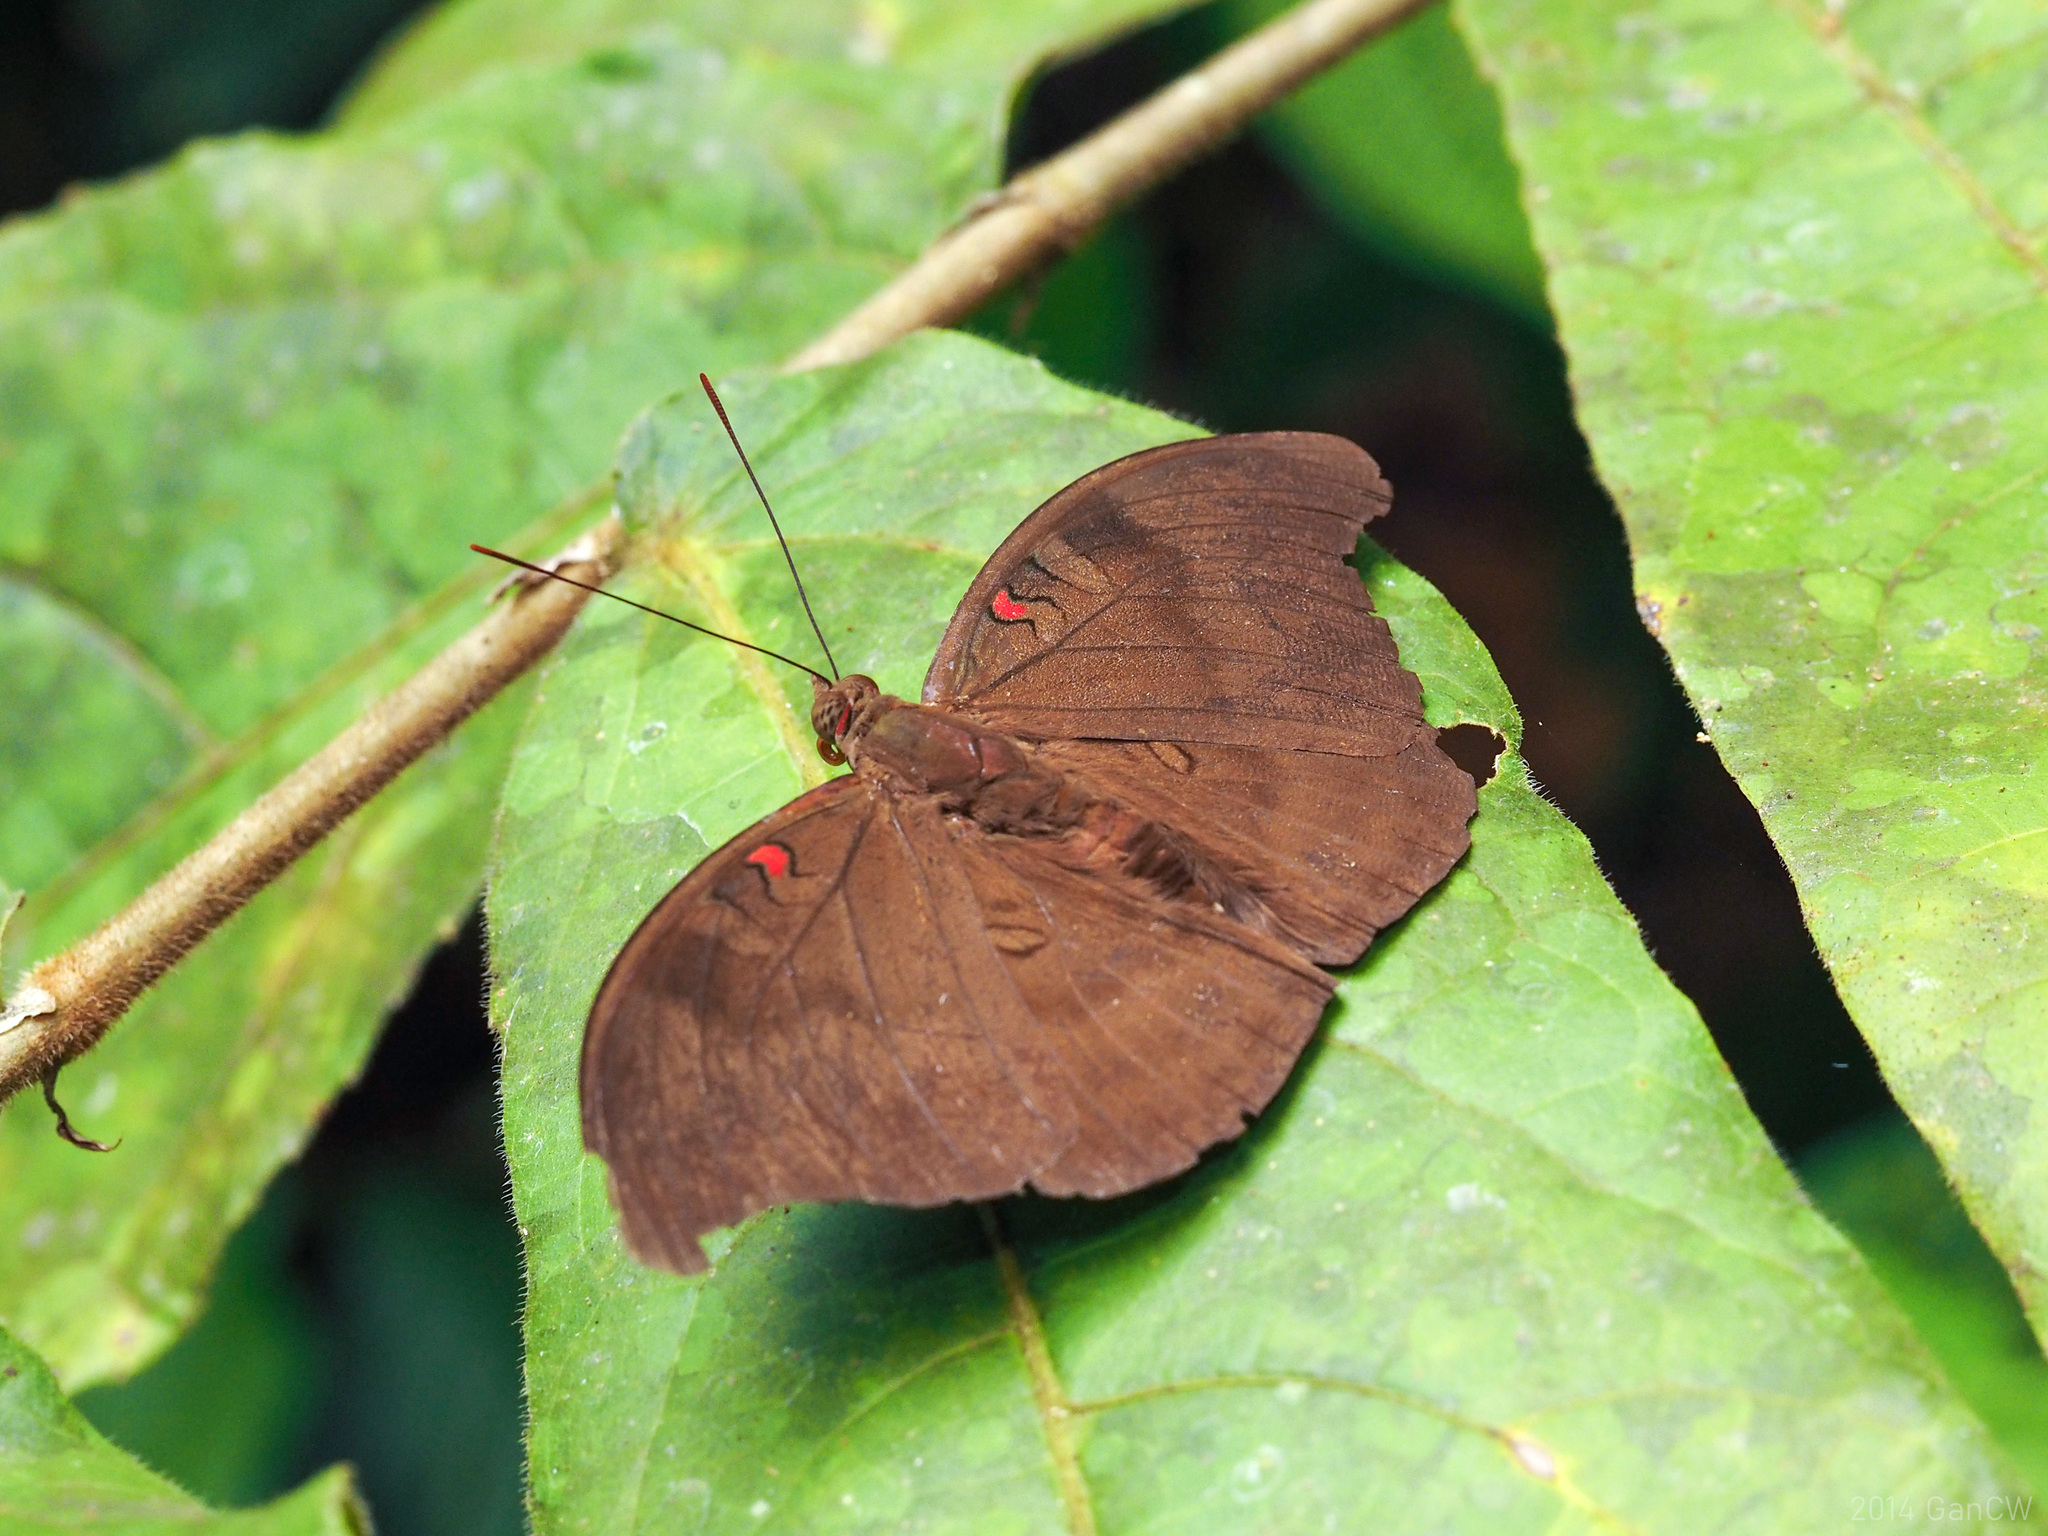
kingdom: Animalia
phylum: Arthropoda
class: Insecta
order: Lepidoptera
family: Nymphalidae
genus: Euthalia
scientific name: Euthalia Dophla evelina
